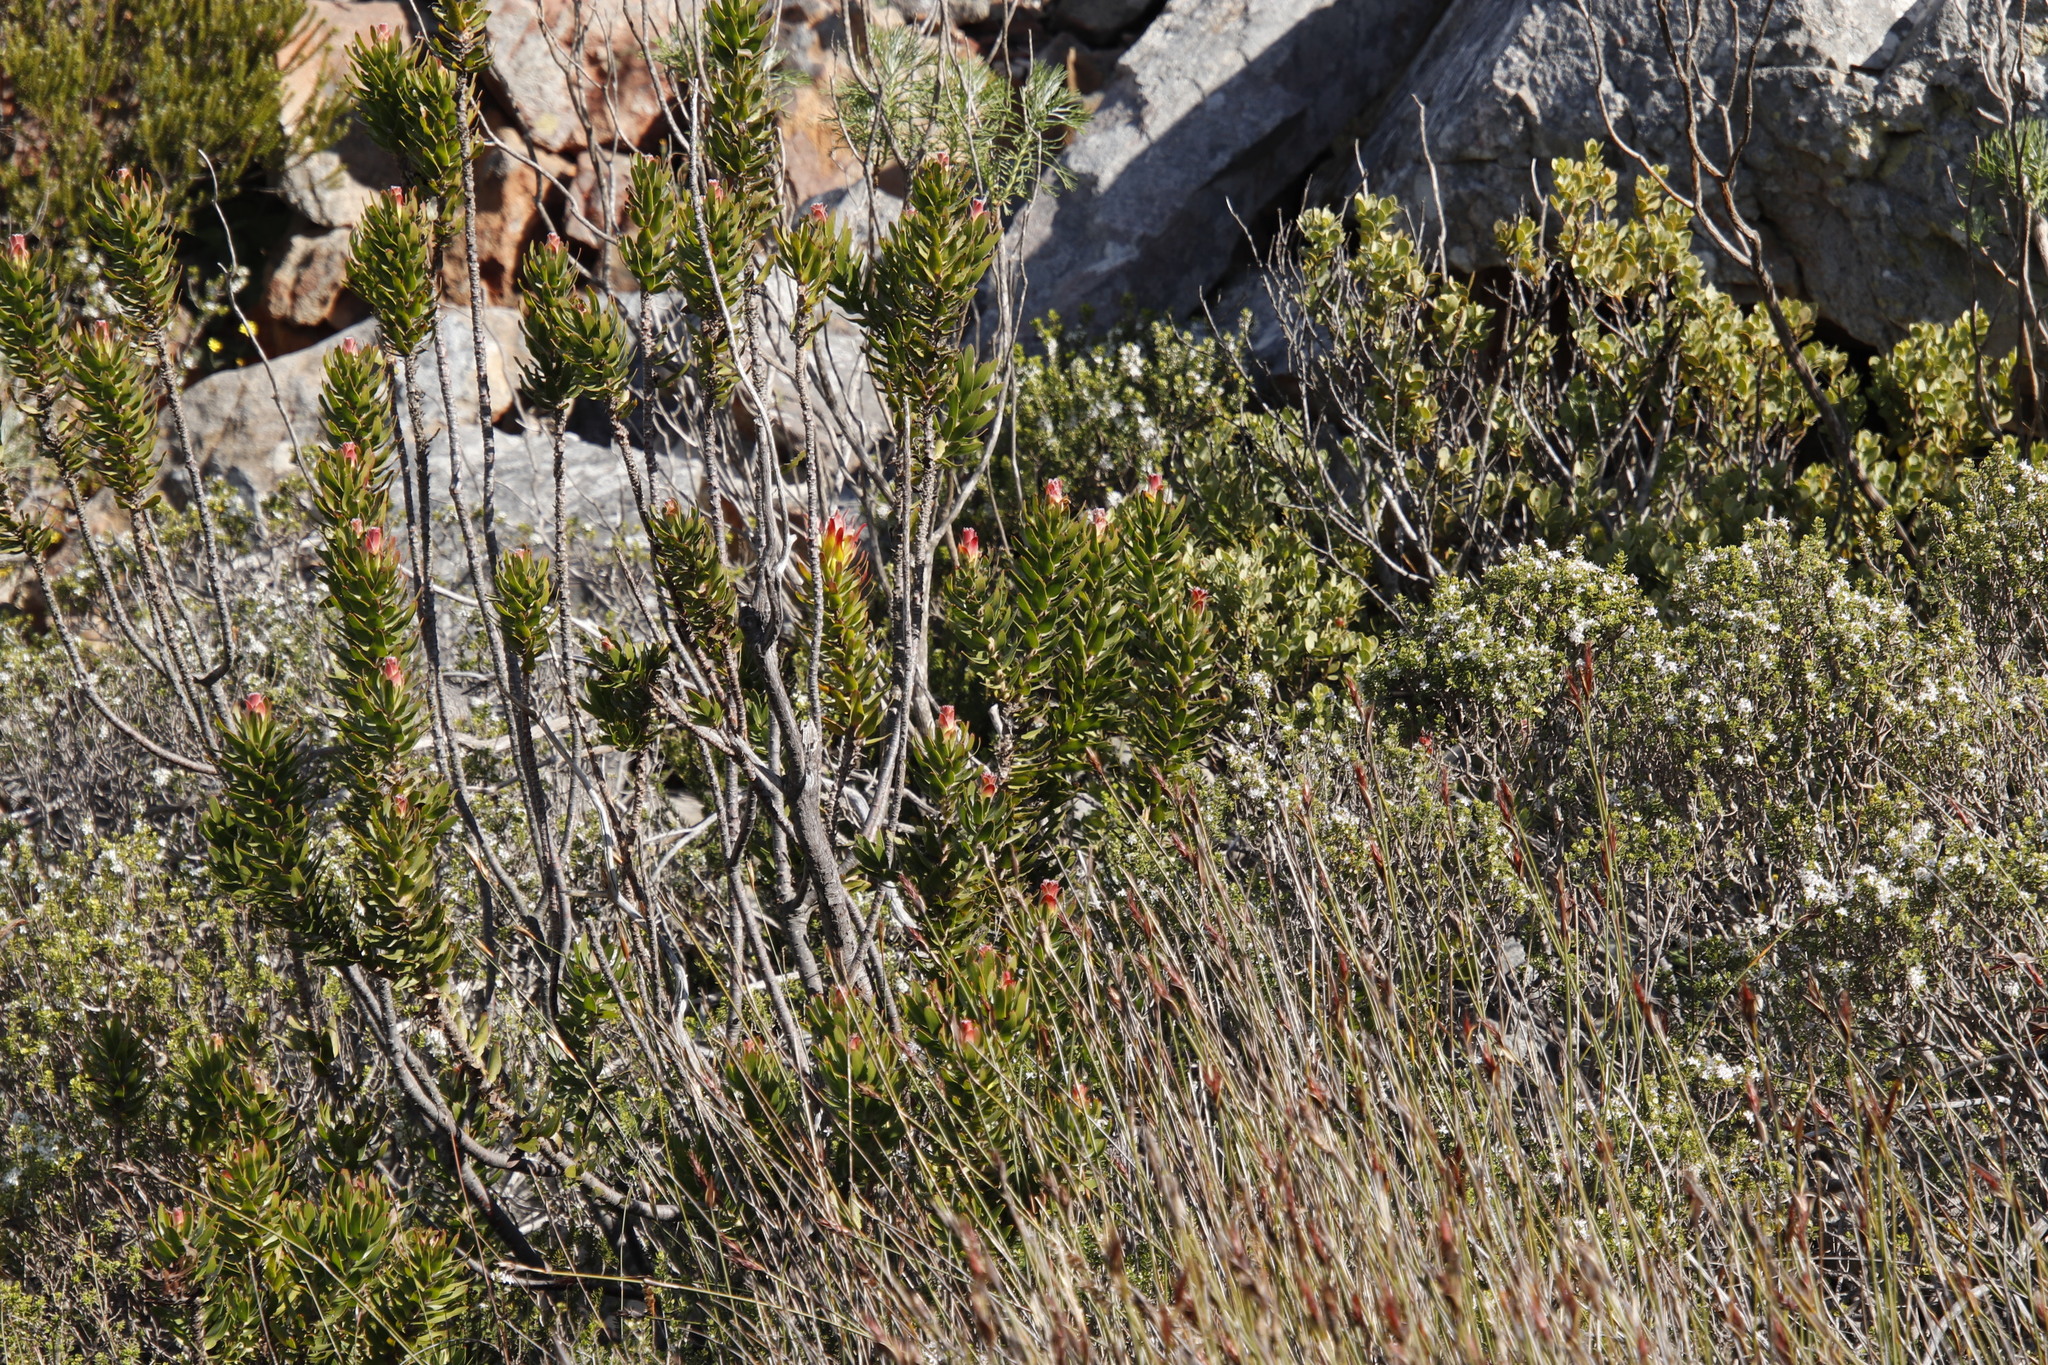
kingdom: Plantae
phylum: Tracheophyta
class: Magnoliopsida
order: Proteales
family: Proteaceae
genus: Mimetes
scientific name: Mimetes cucullatus
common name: Common pagoda
